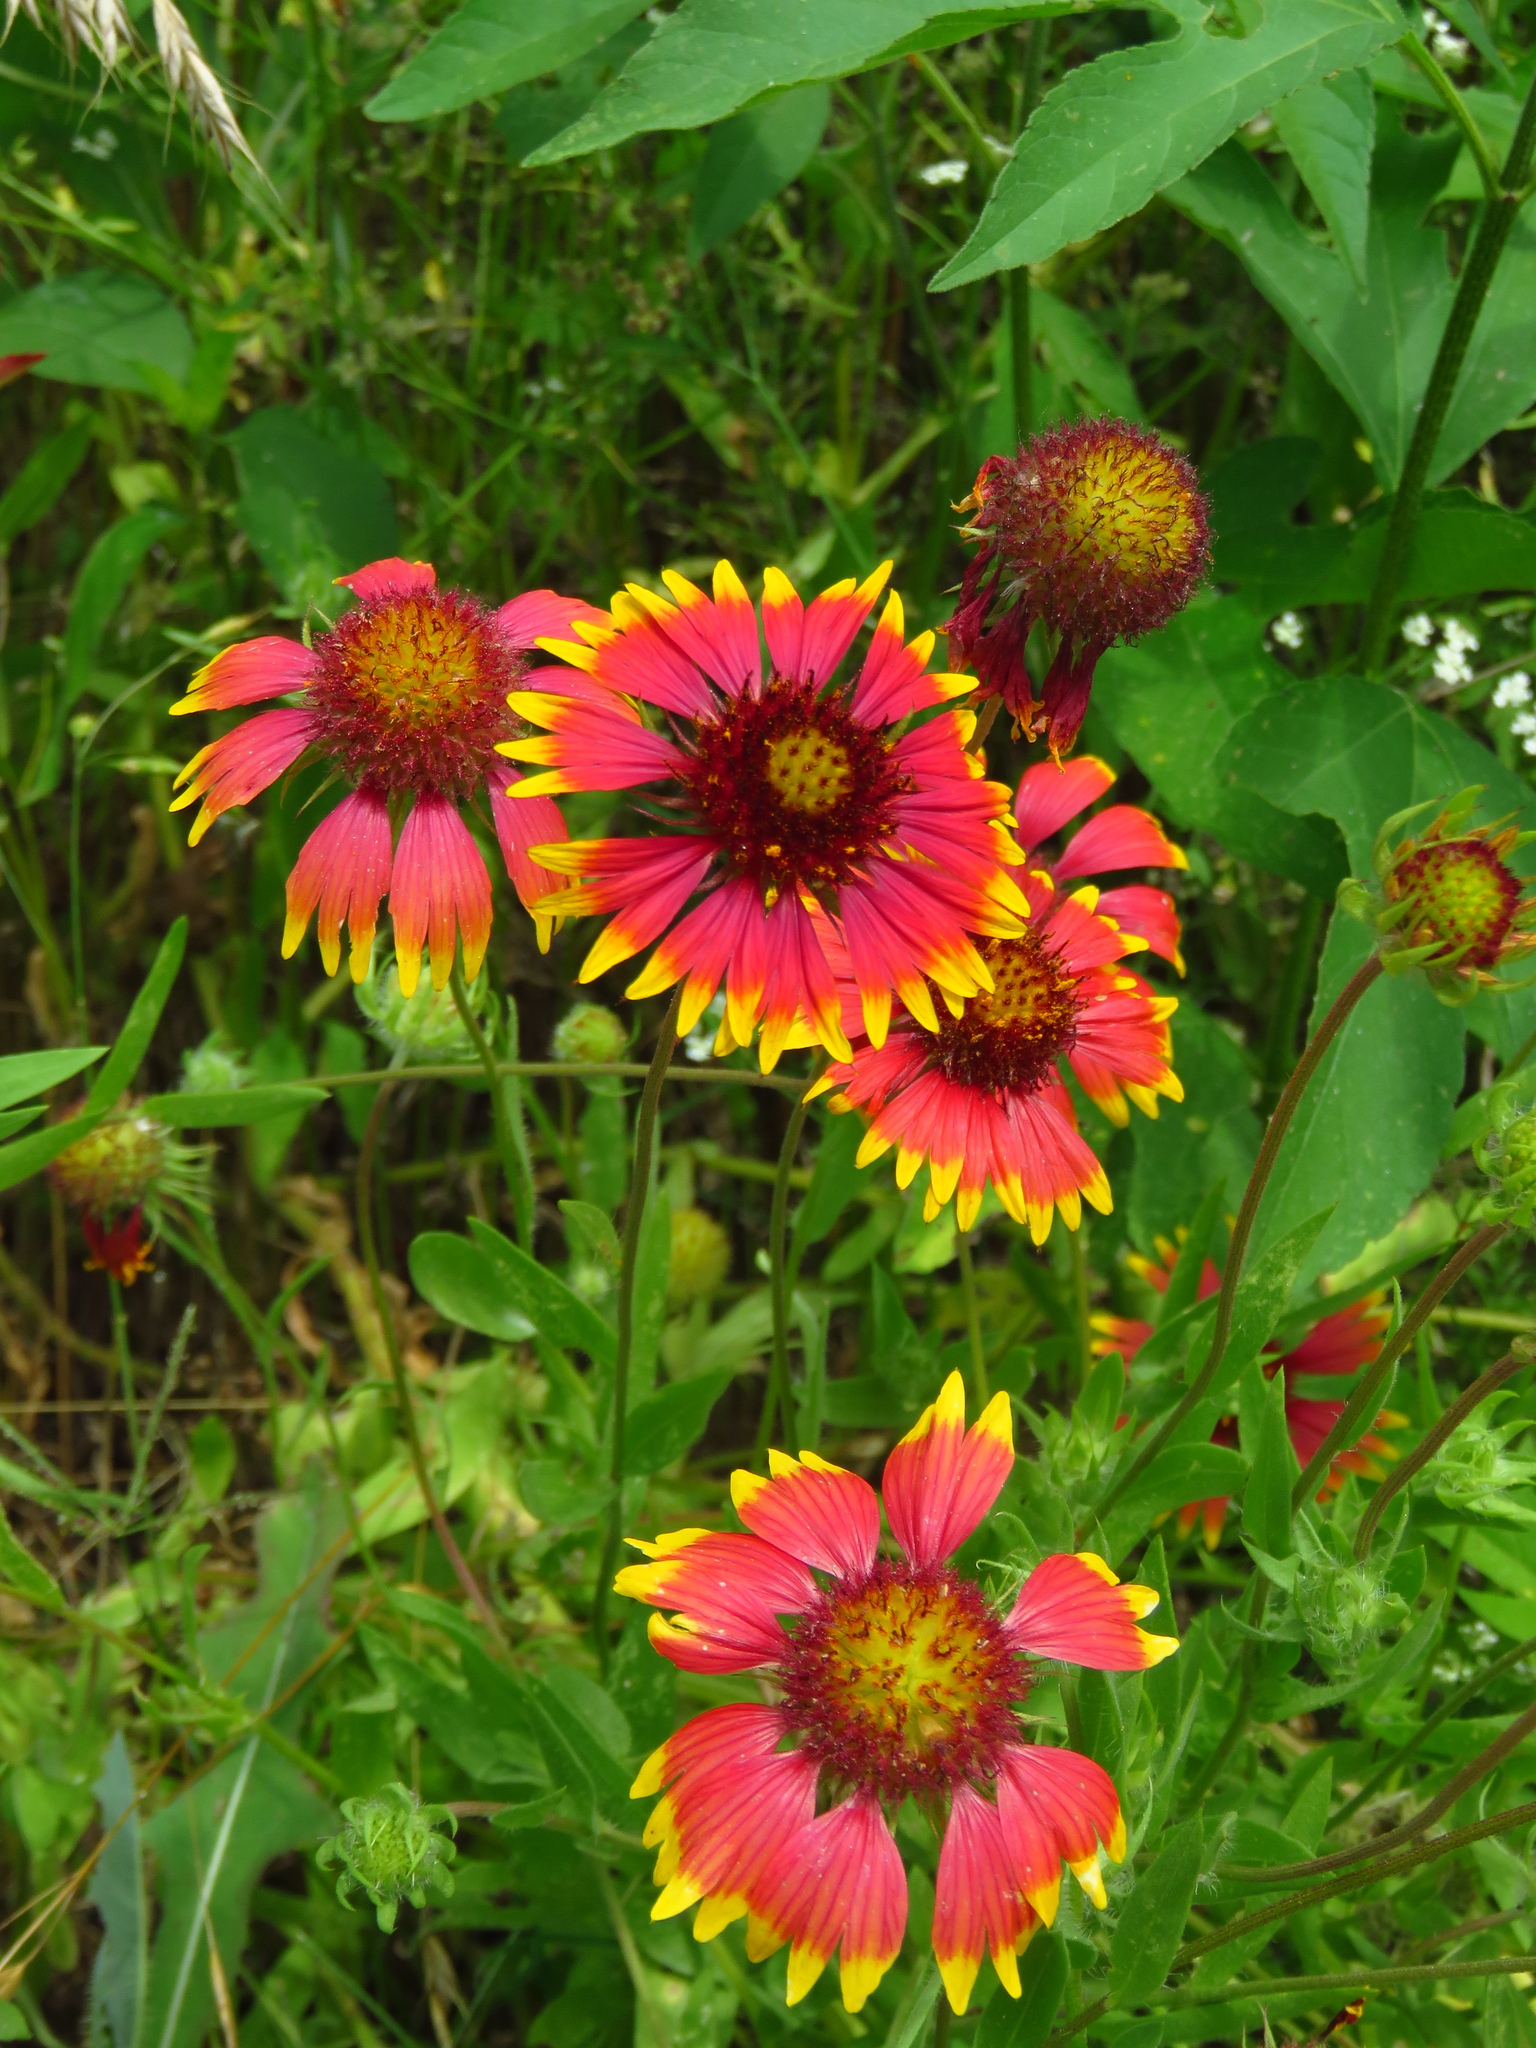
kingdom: Plantae
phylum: Tracheophyta
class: Magnoliopsida
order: Asterales
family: Asteraceae
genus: Gaillardia
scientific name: Gaillardia pulchella
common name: Firewheel
